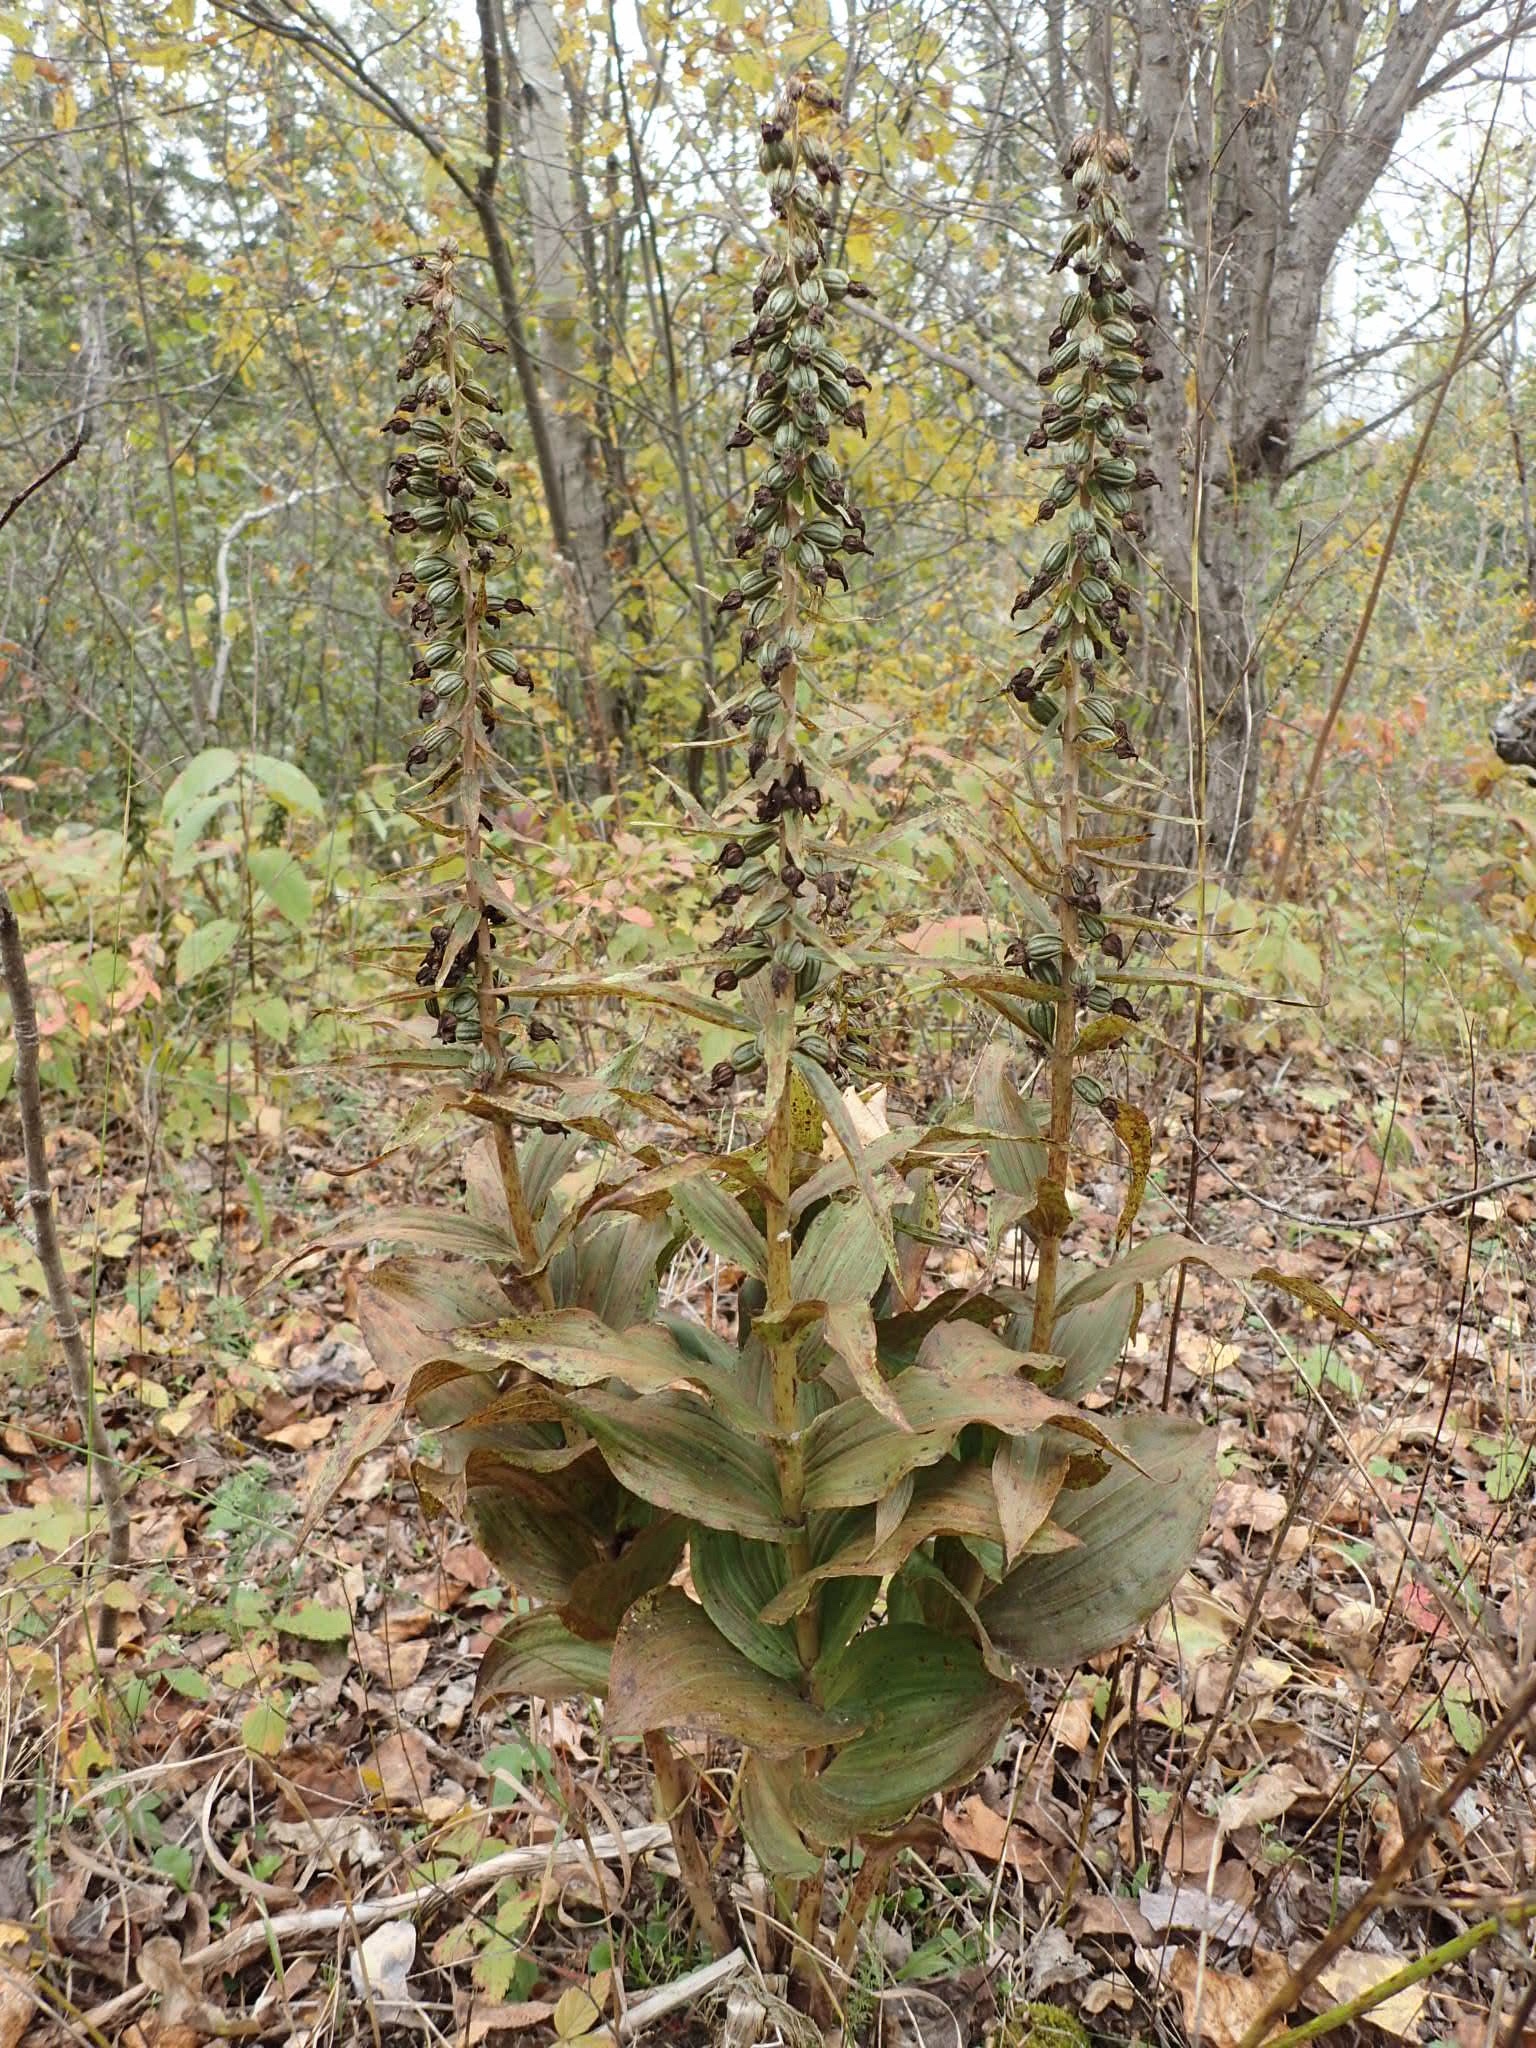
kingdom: Plantae
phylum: Tracheophyta
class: Liliopsida
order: Asparagales
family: Orchidaceae
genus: Epipactis
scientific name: Epipactis helleborine
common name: Broad-leaved helleborine
